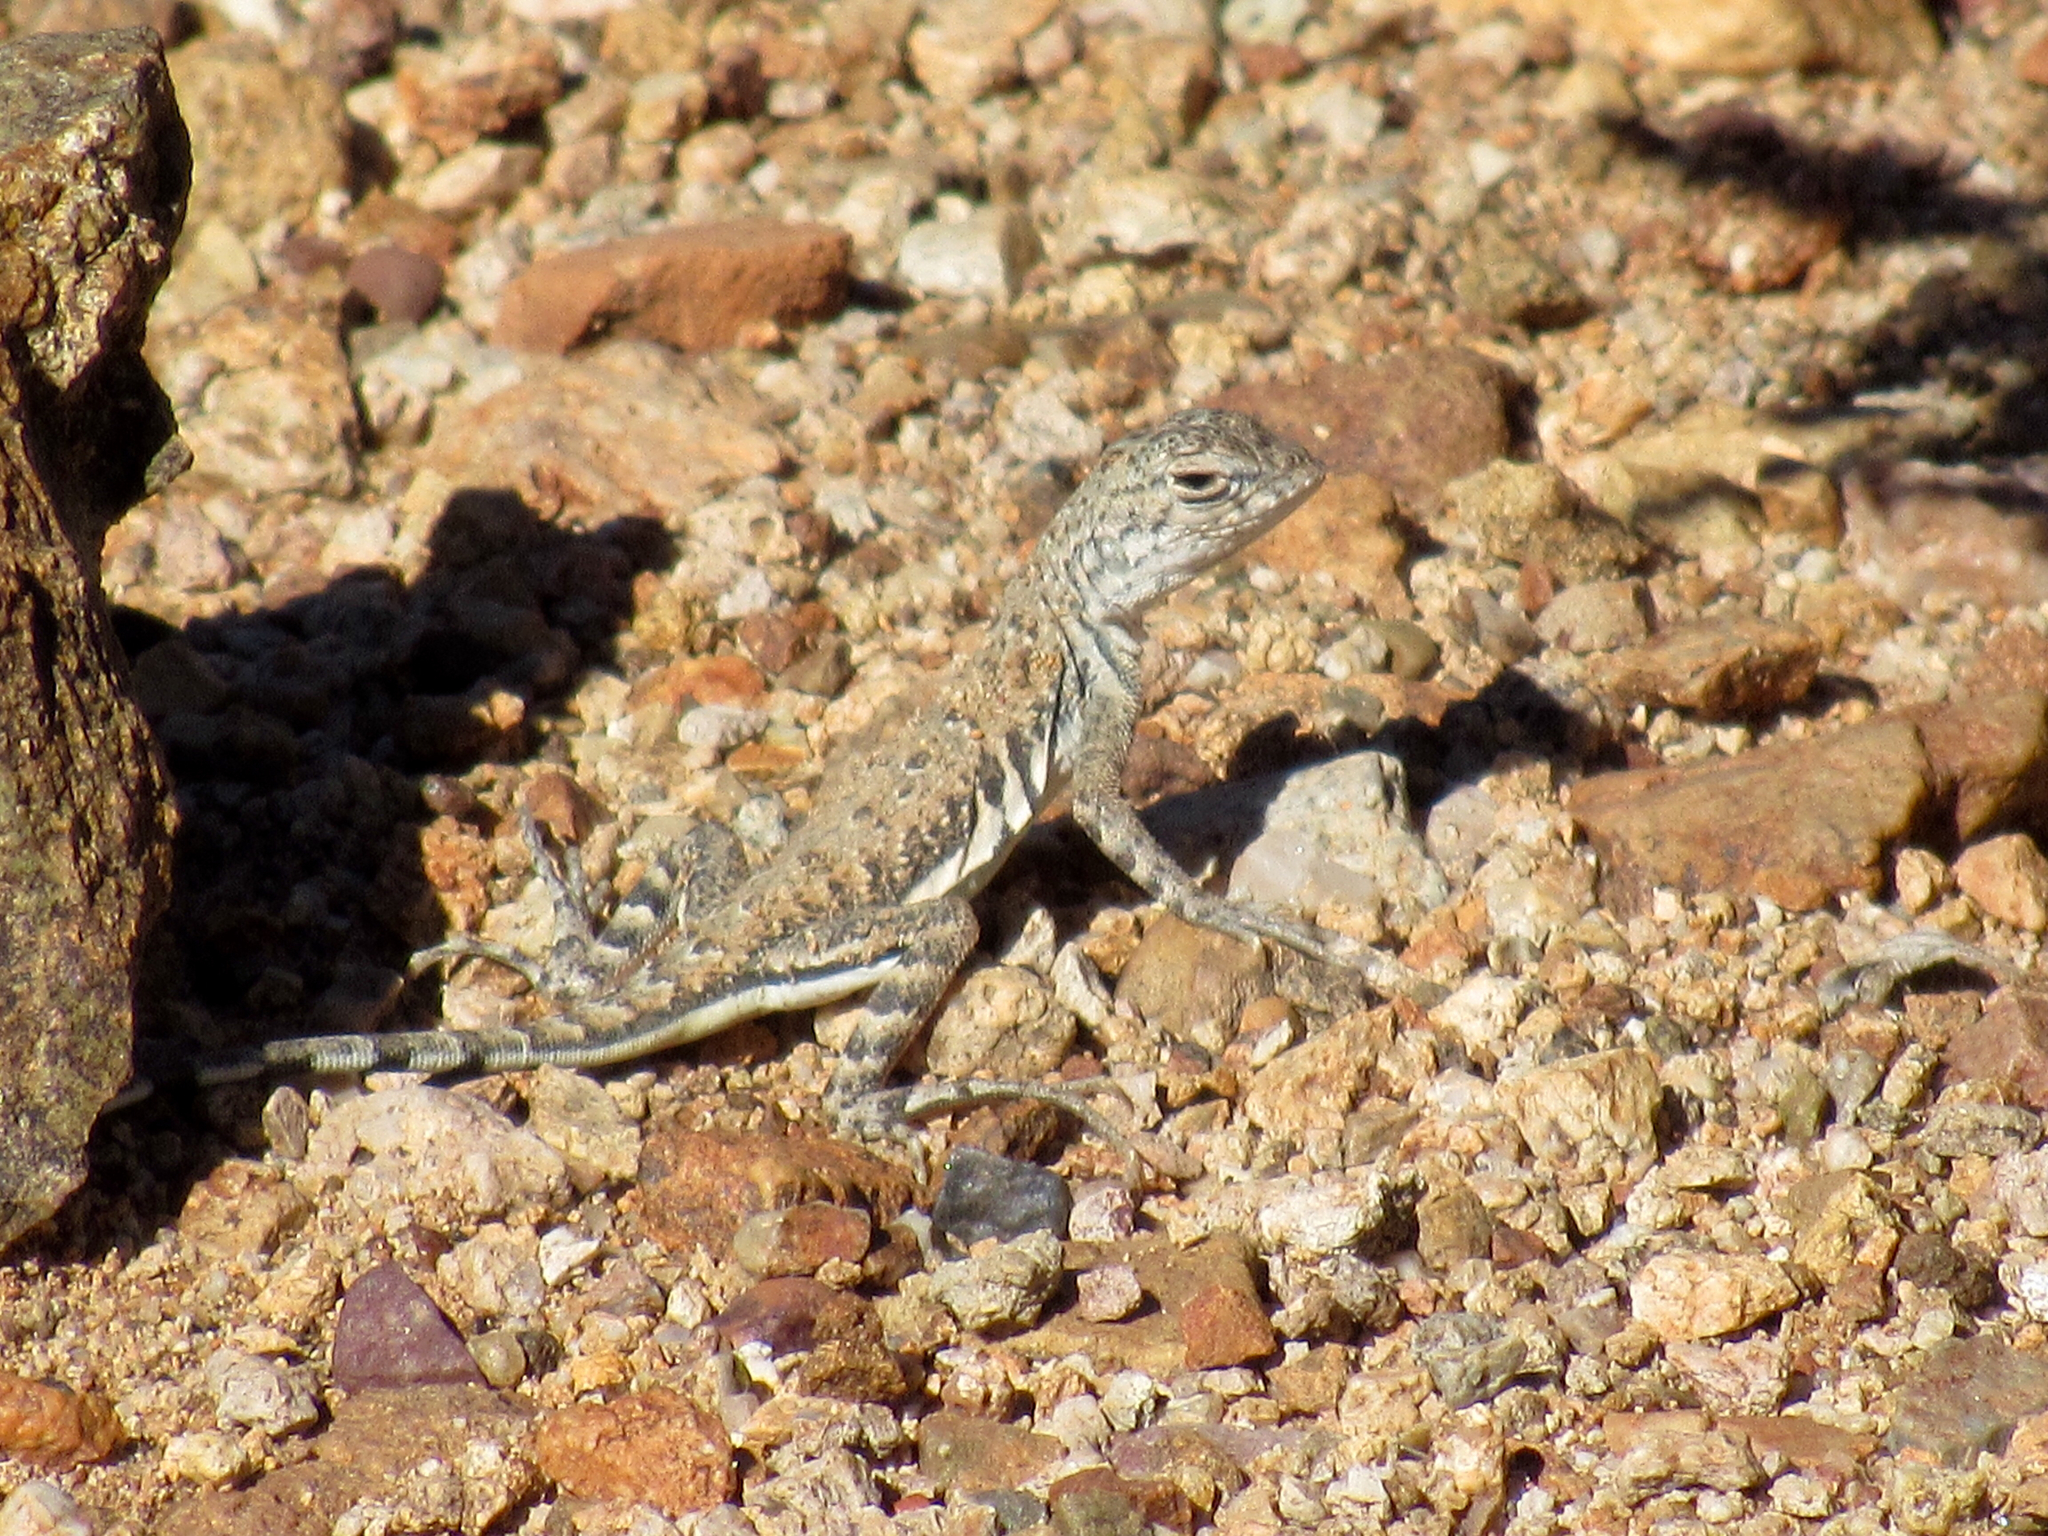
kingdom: Animalia
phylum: Chordata
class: Squamata
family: Phrynosomatidae
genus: Callisaurus
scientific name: Callisaurus draconoides
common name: Zebra-tailed lizard
